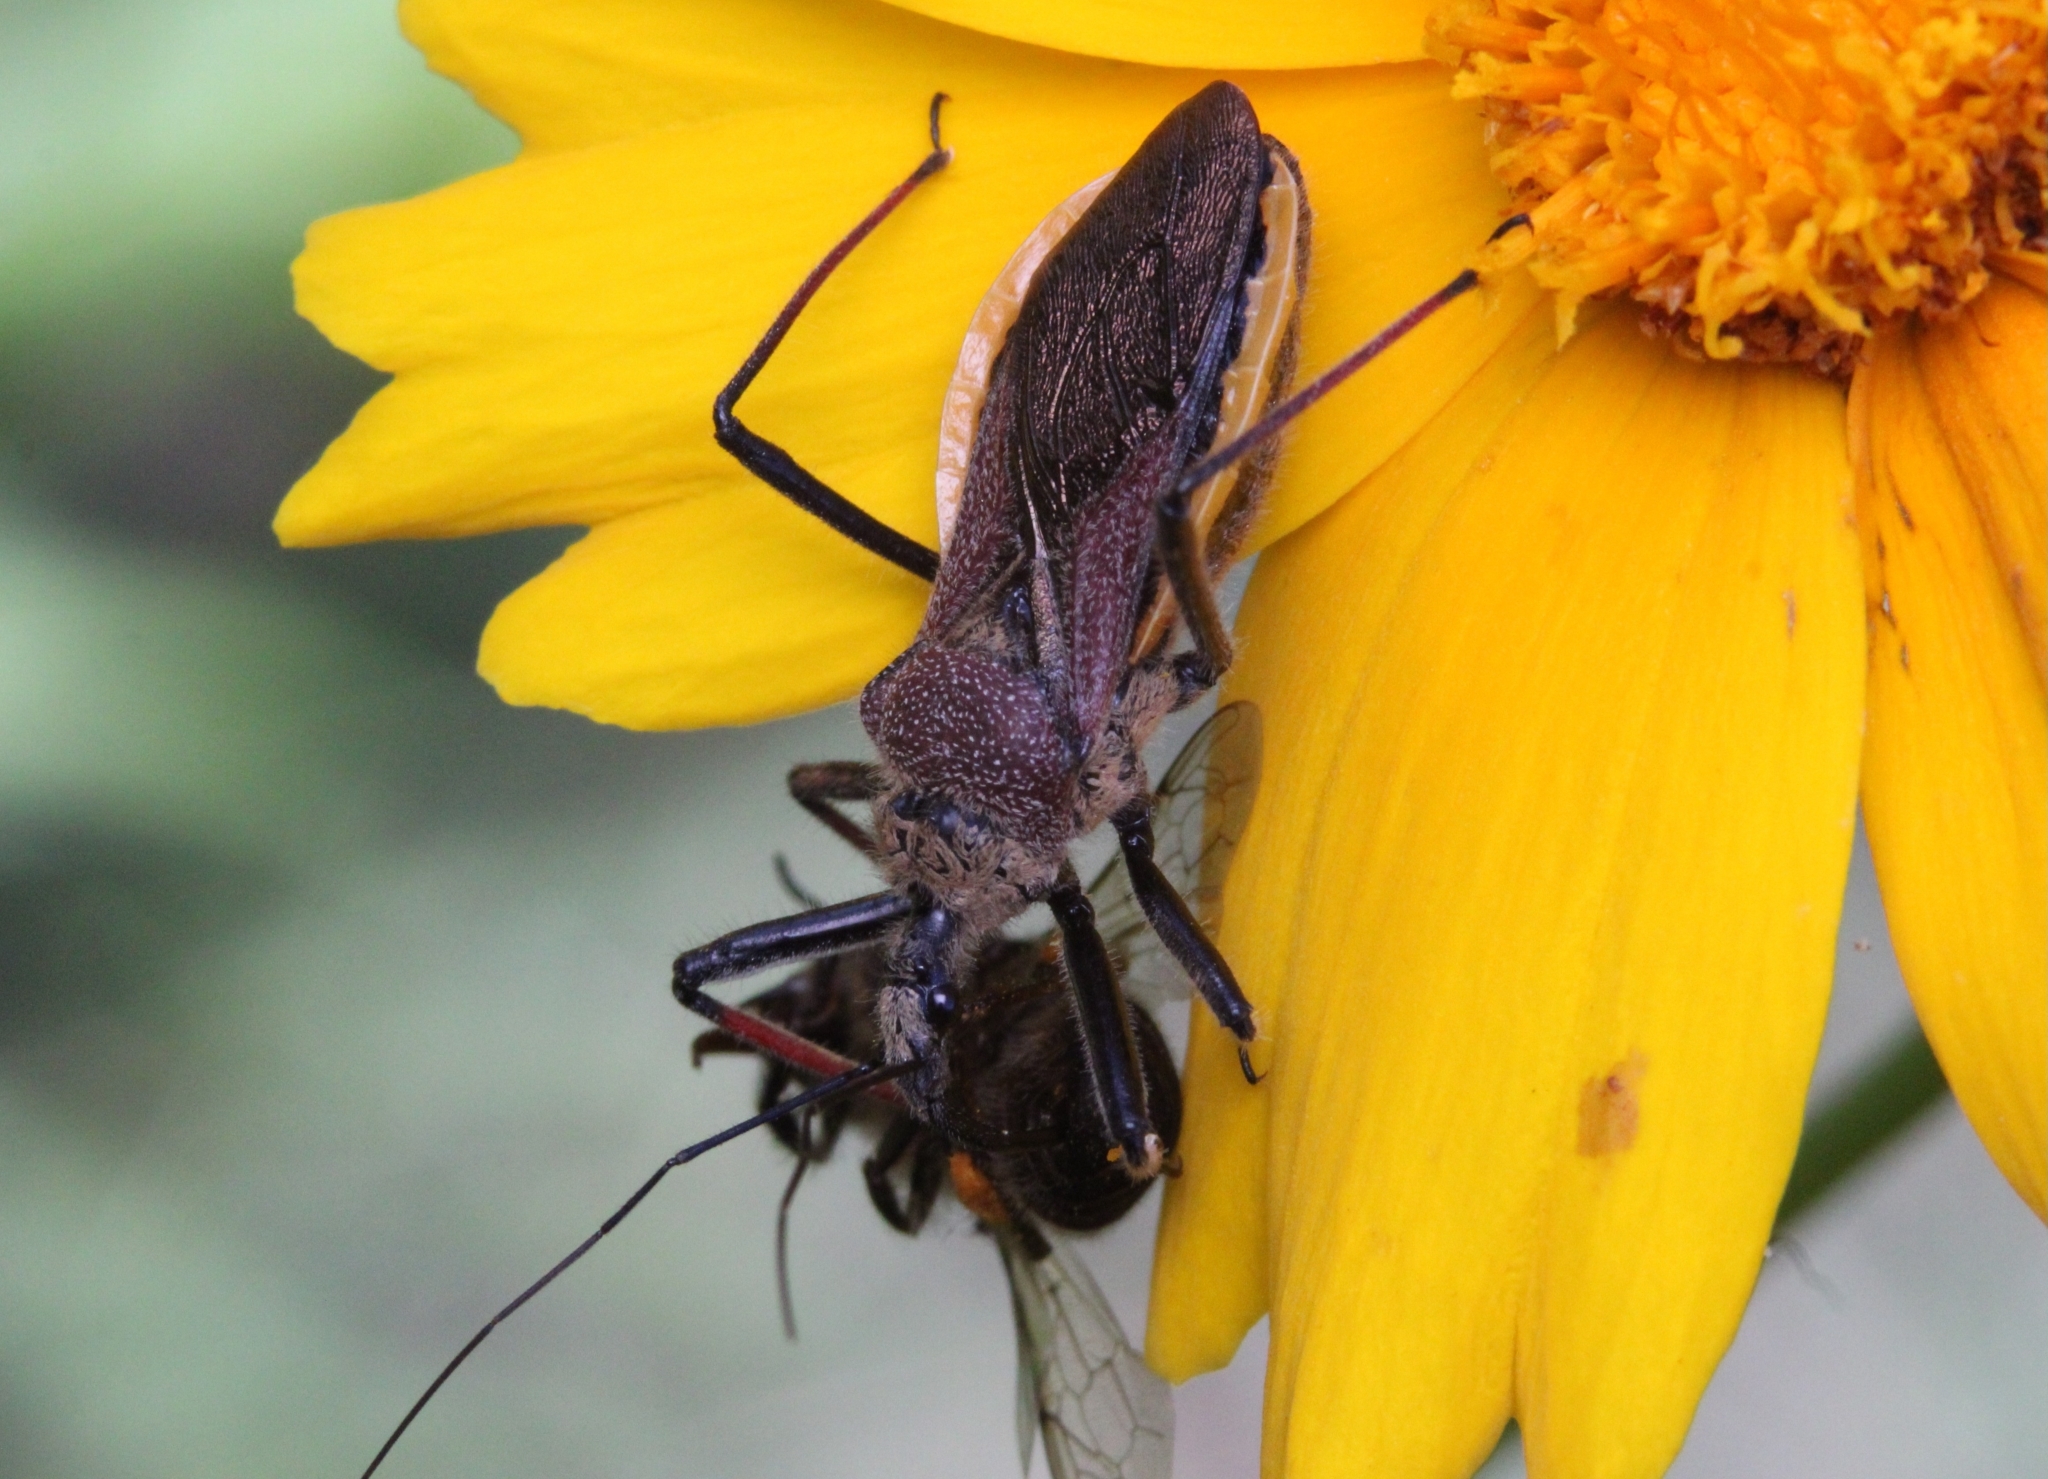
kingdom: Animalia
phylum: Arthropoda
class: Insecta
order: Hemiptera
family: Reduviidae
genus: Rhynocoris
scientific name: Rhynocoris erythrocnemis
